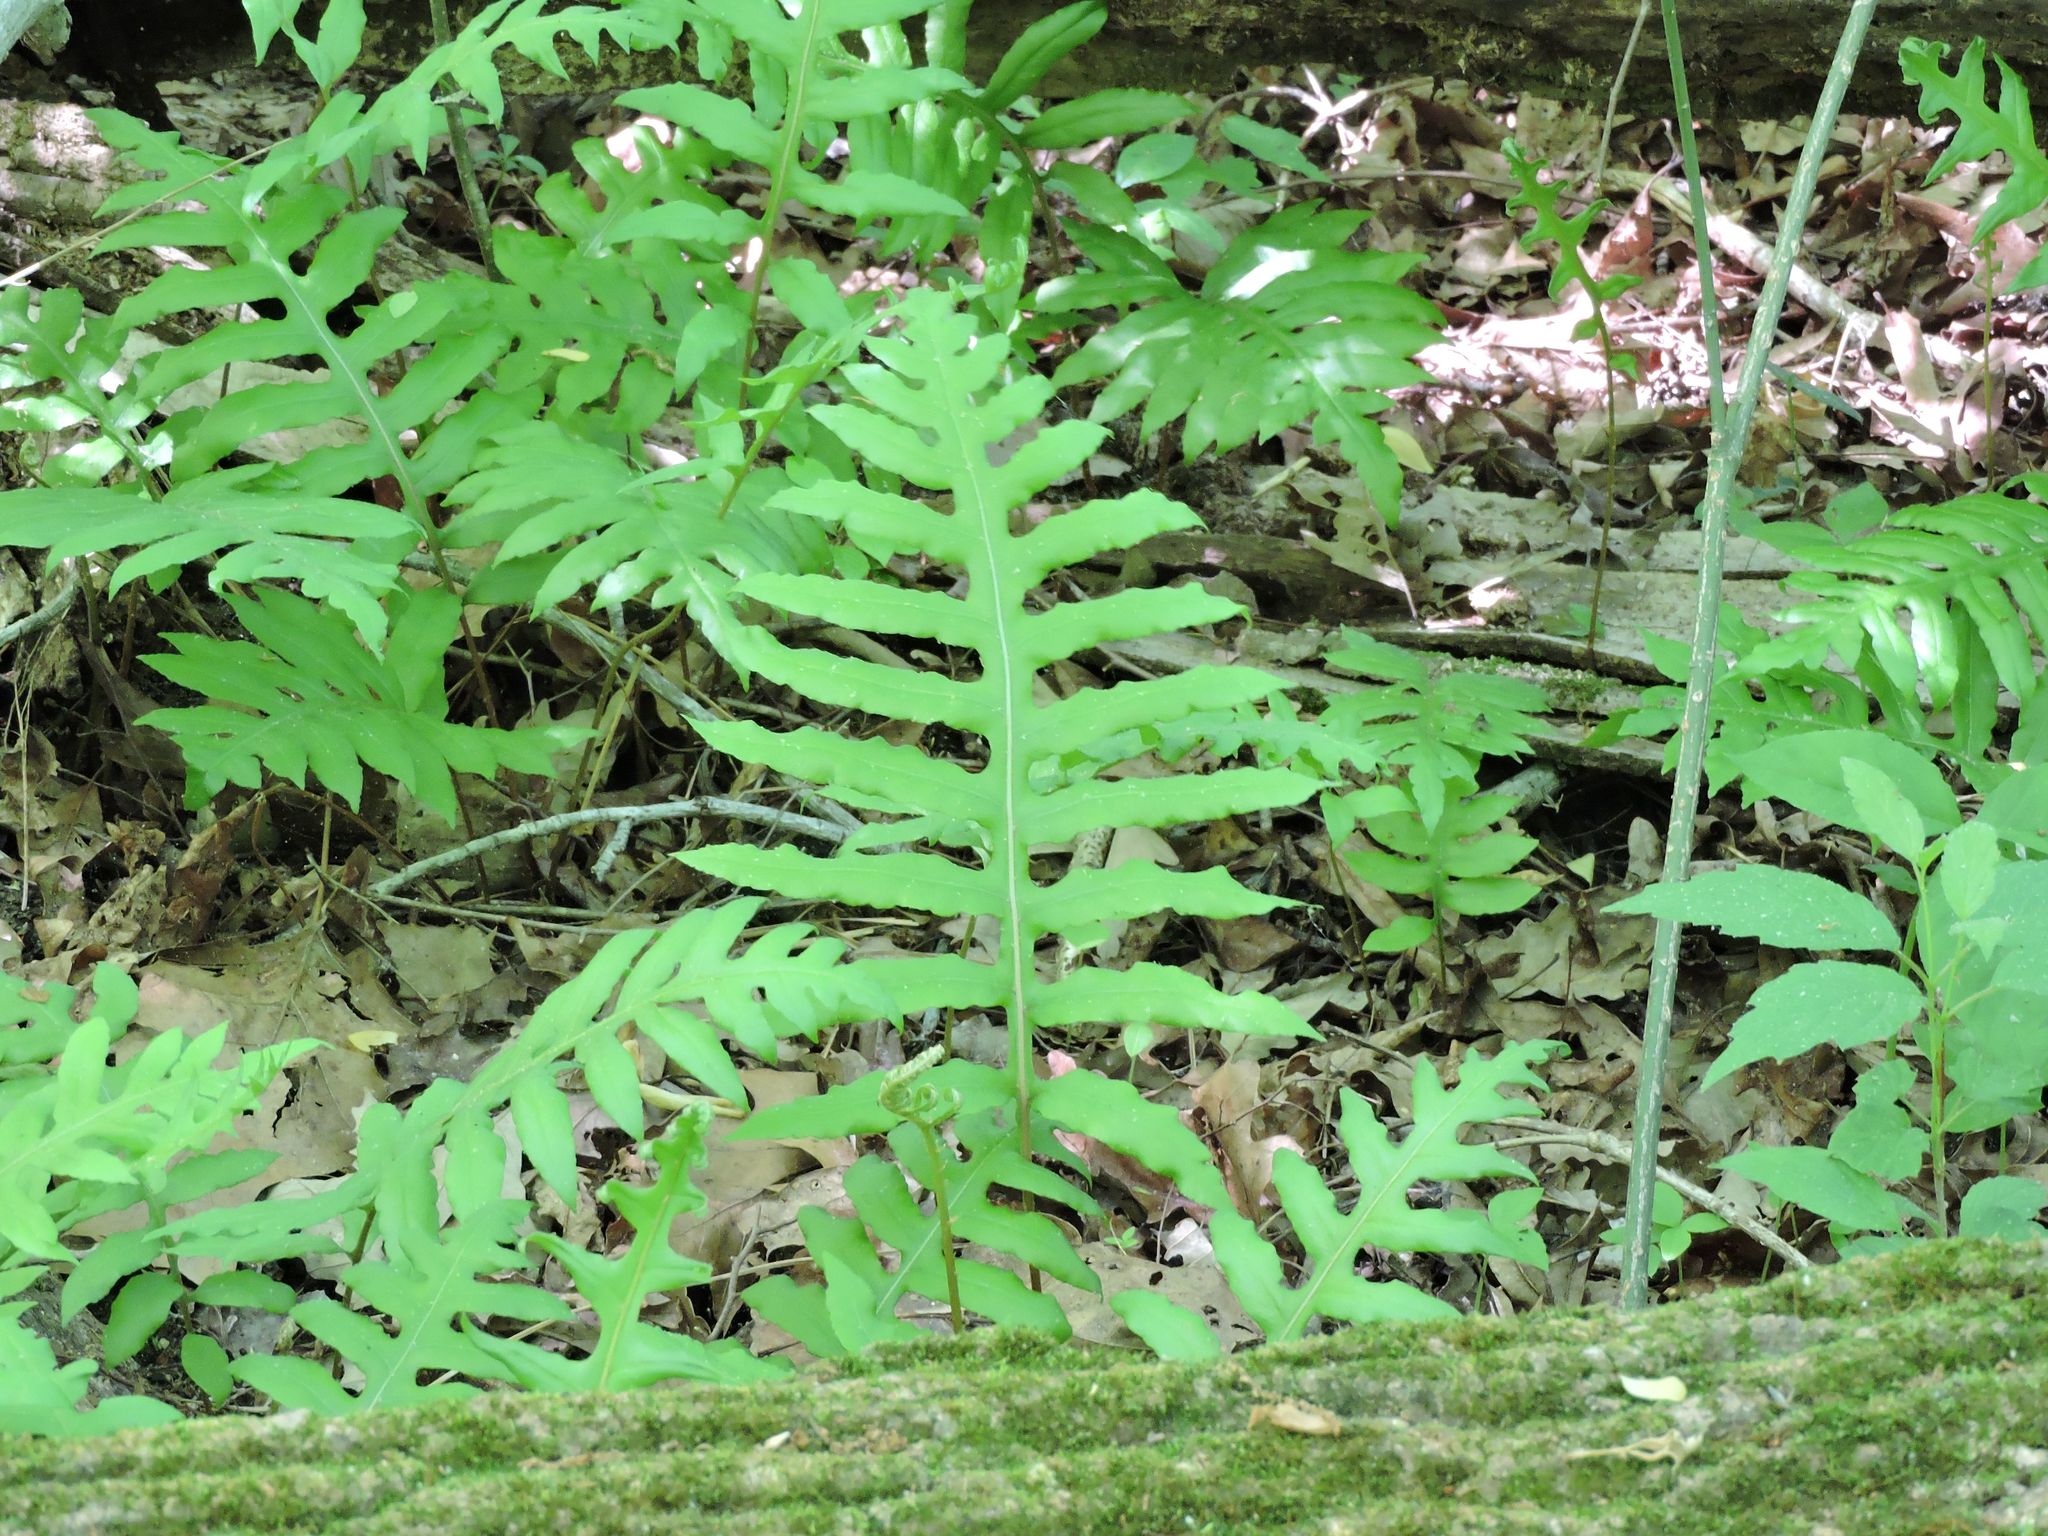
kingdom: Plantae
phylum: Tracheophyta
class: Polypodiopsida
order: Polypodiales
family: Blechnaceae
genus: Lorinseria
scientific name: Lorinseria areolata
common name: Dwarf chain fern
